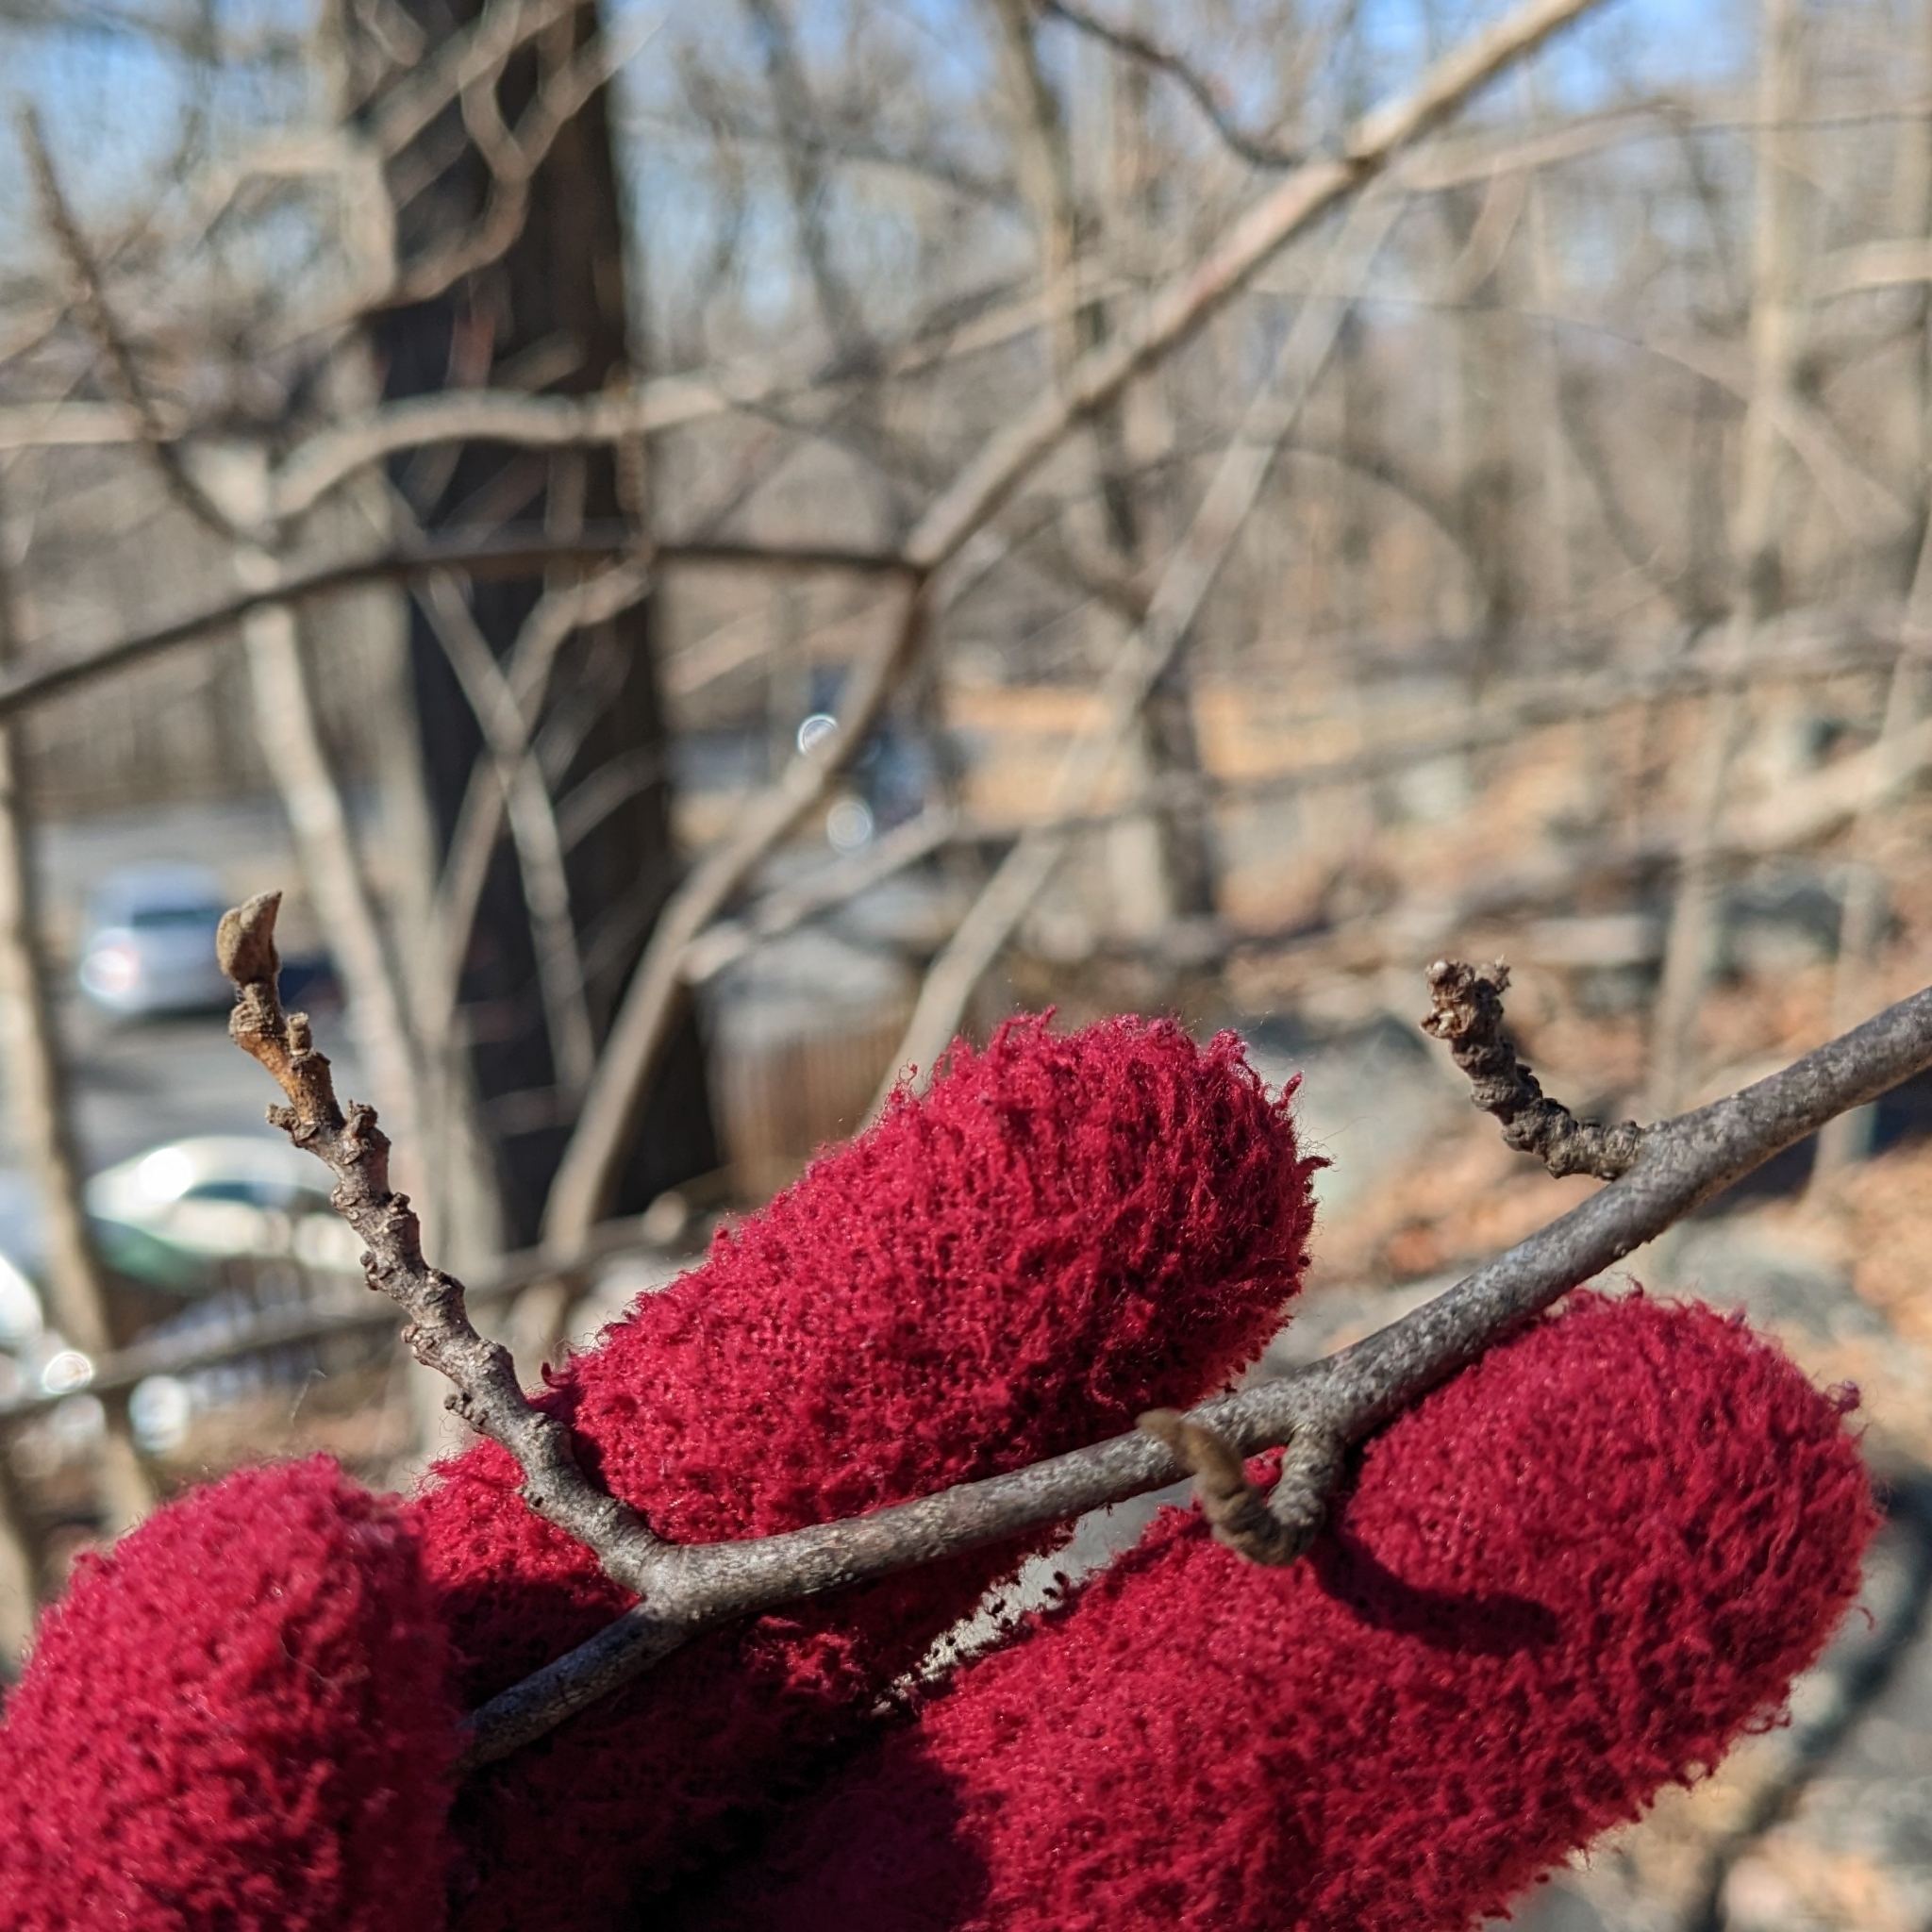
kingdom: Animalia
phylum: Arthropoda
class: Insecta
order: Hemiptera
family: Aphididae
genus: Hamamelistes
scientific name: Hamamelistes spinosus
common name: Witch hazel gall aphid
